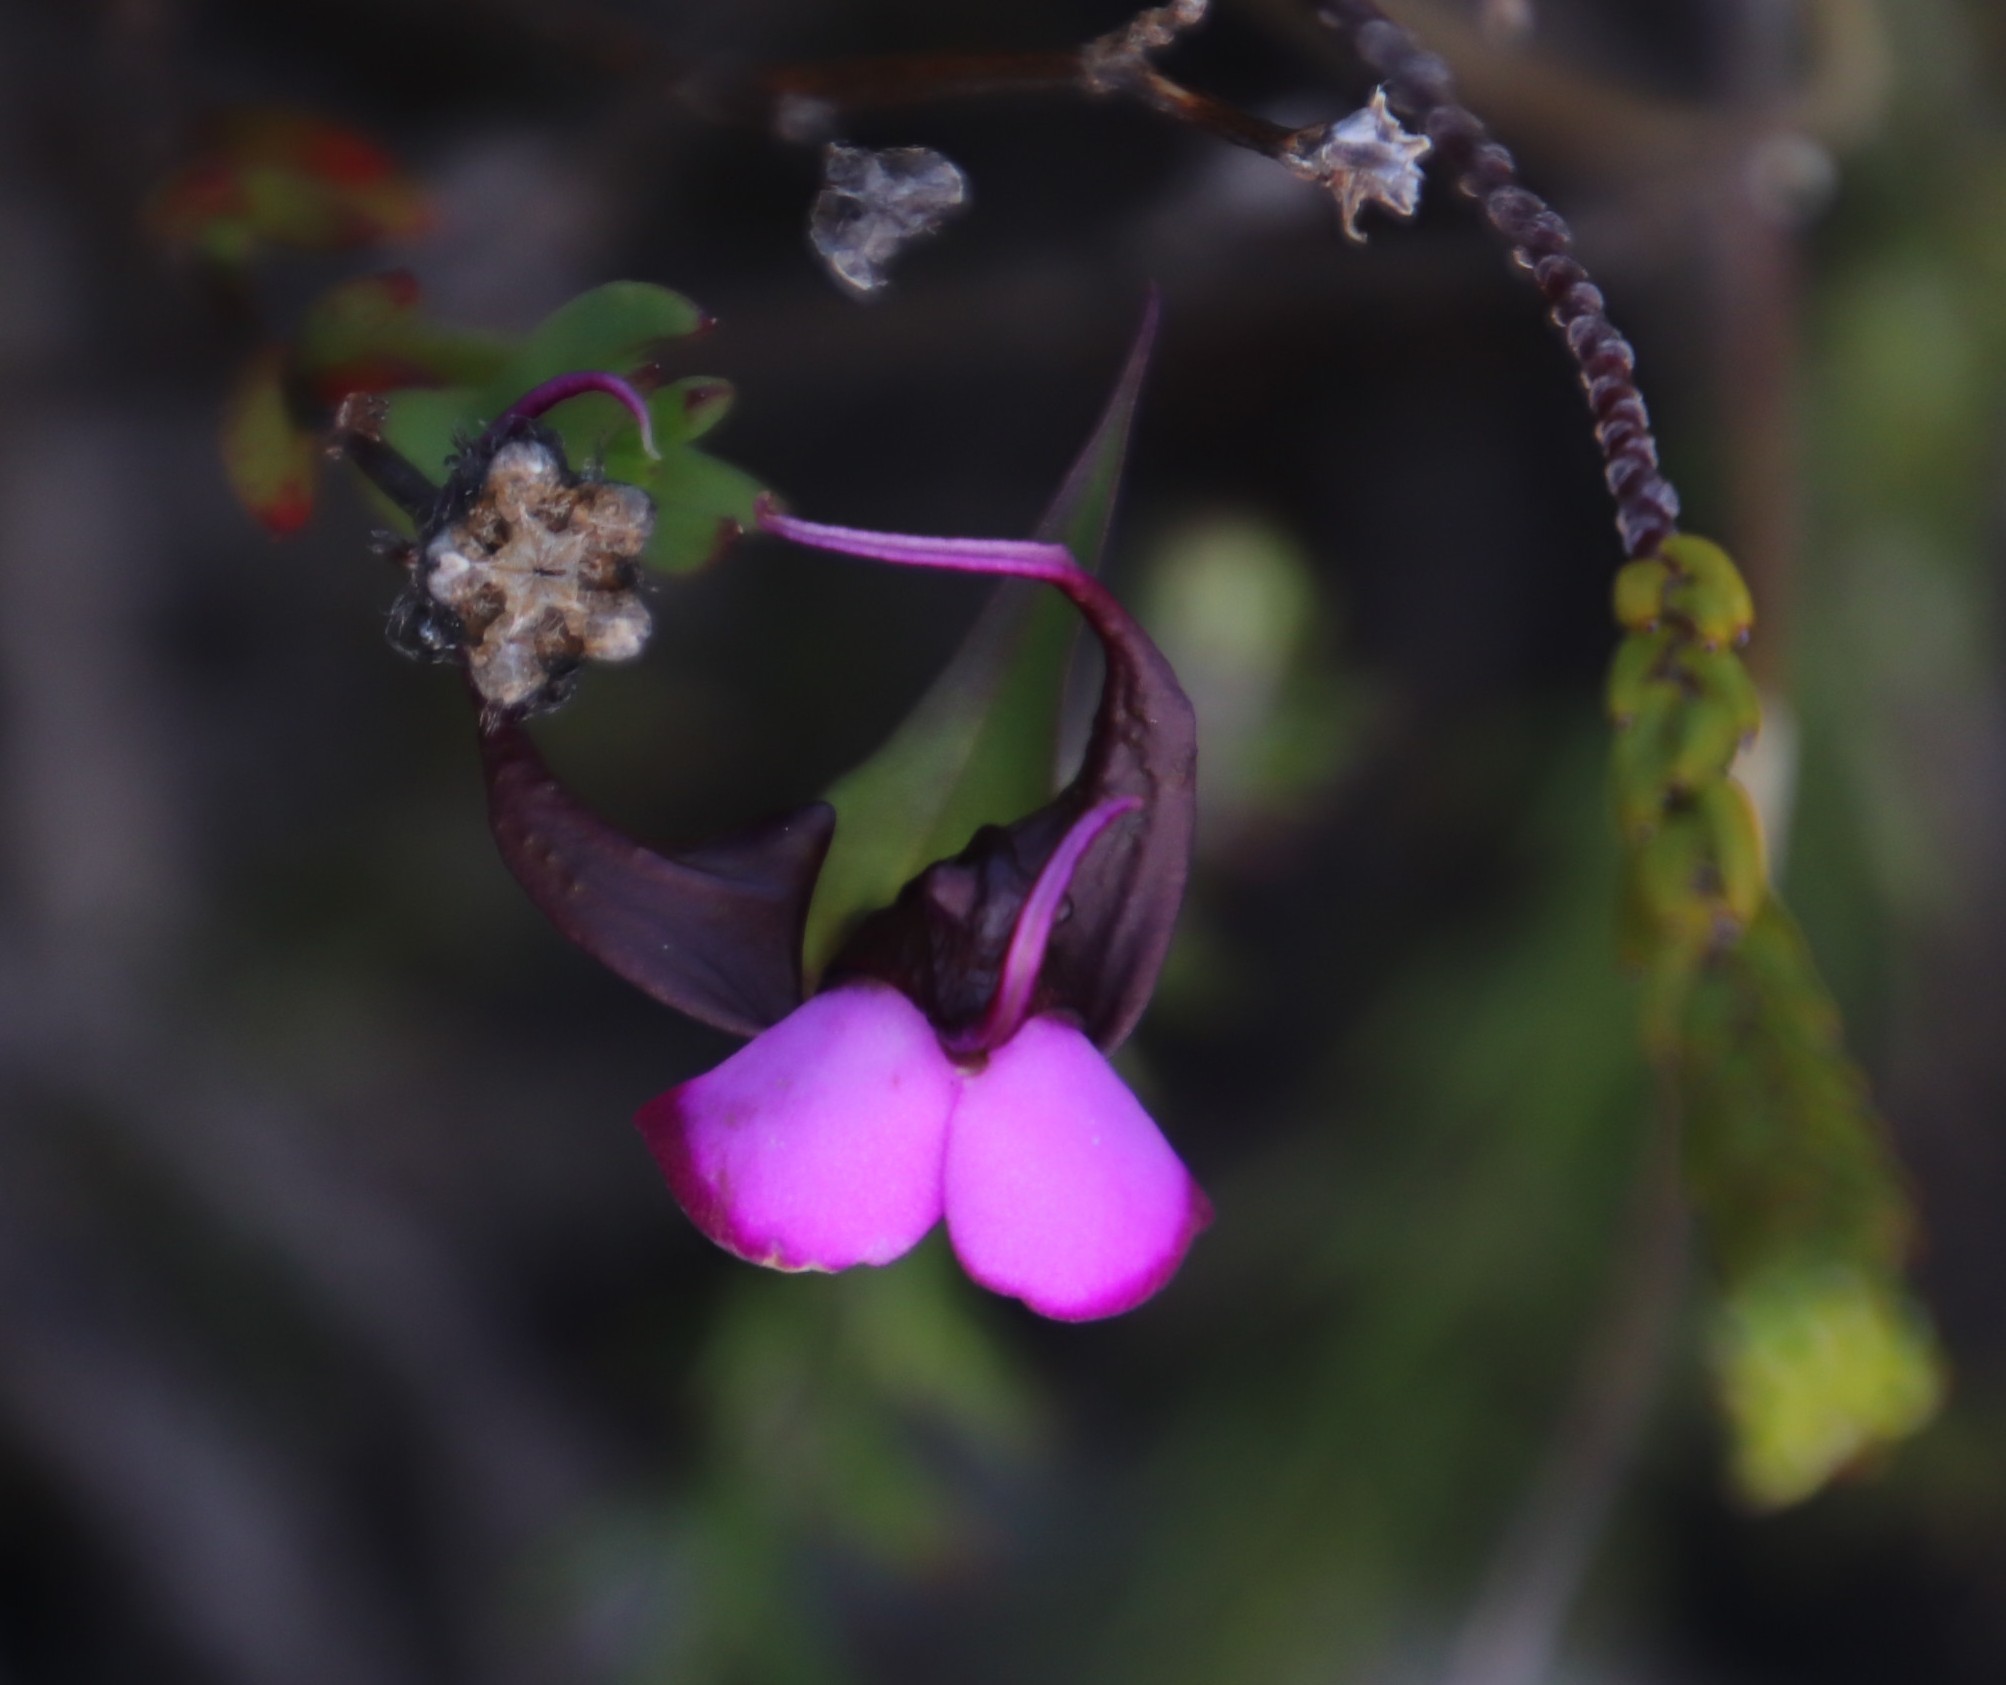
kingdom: Plantae
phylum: Tracheophyta
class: Liliopsida
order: Asparagales
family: Orchidaceae
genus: Disperis
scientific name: Disperis capensis
